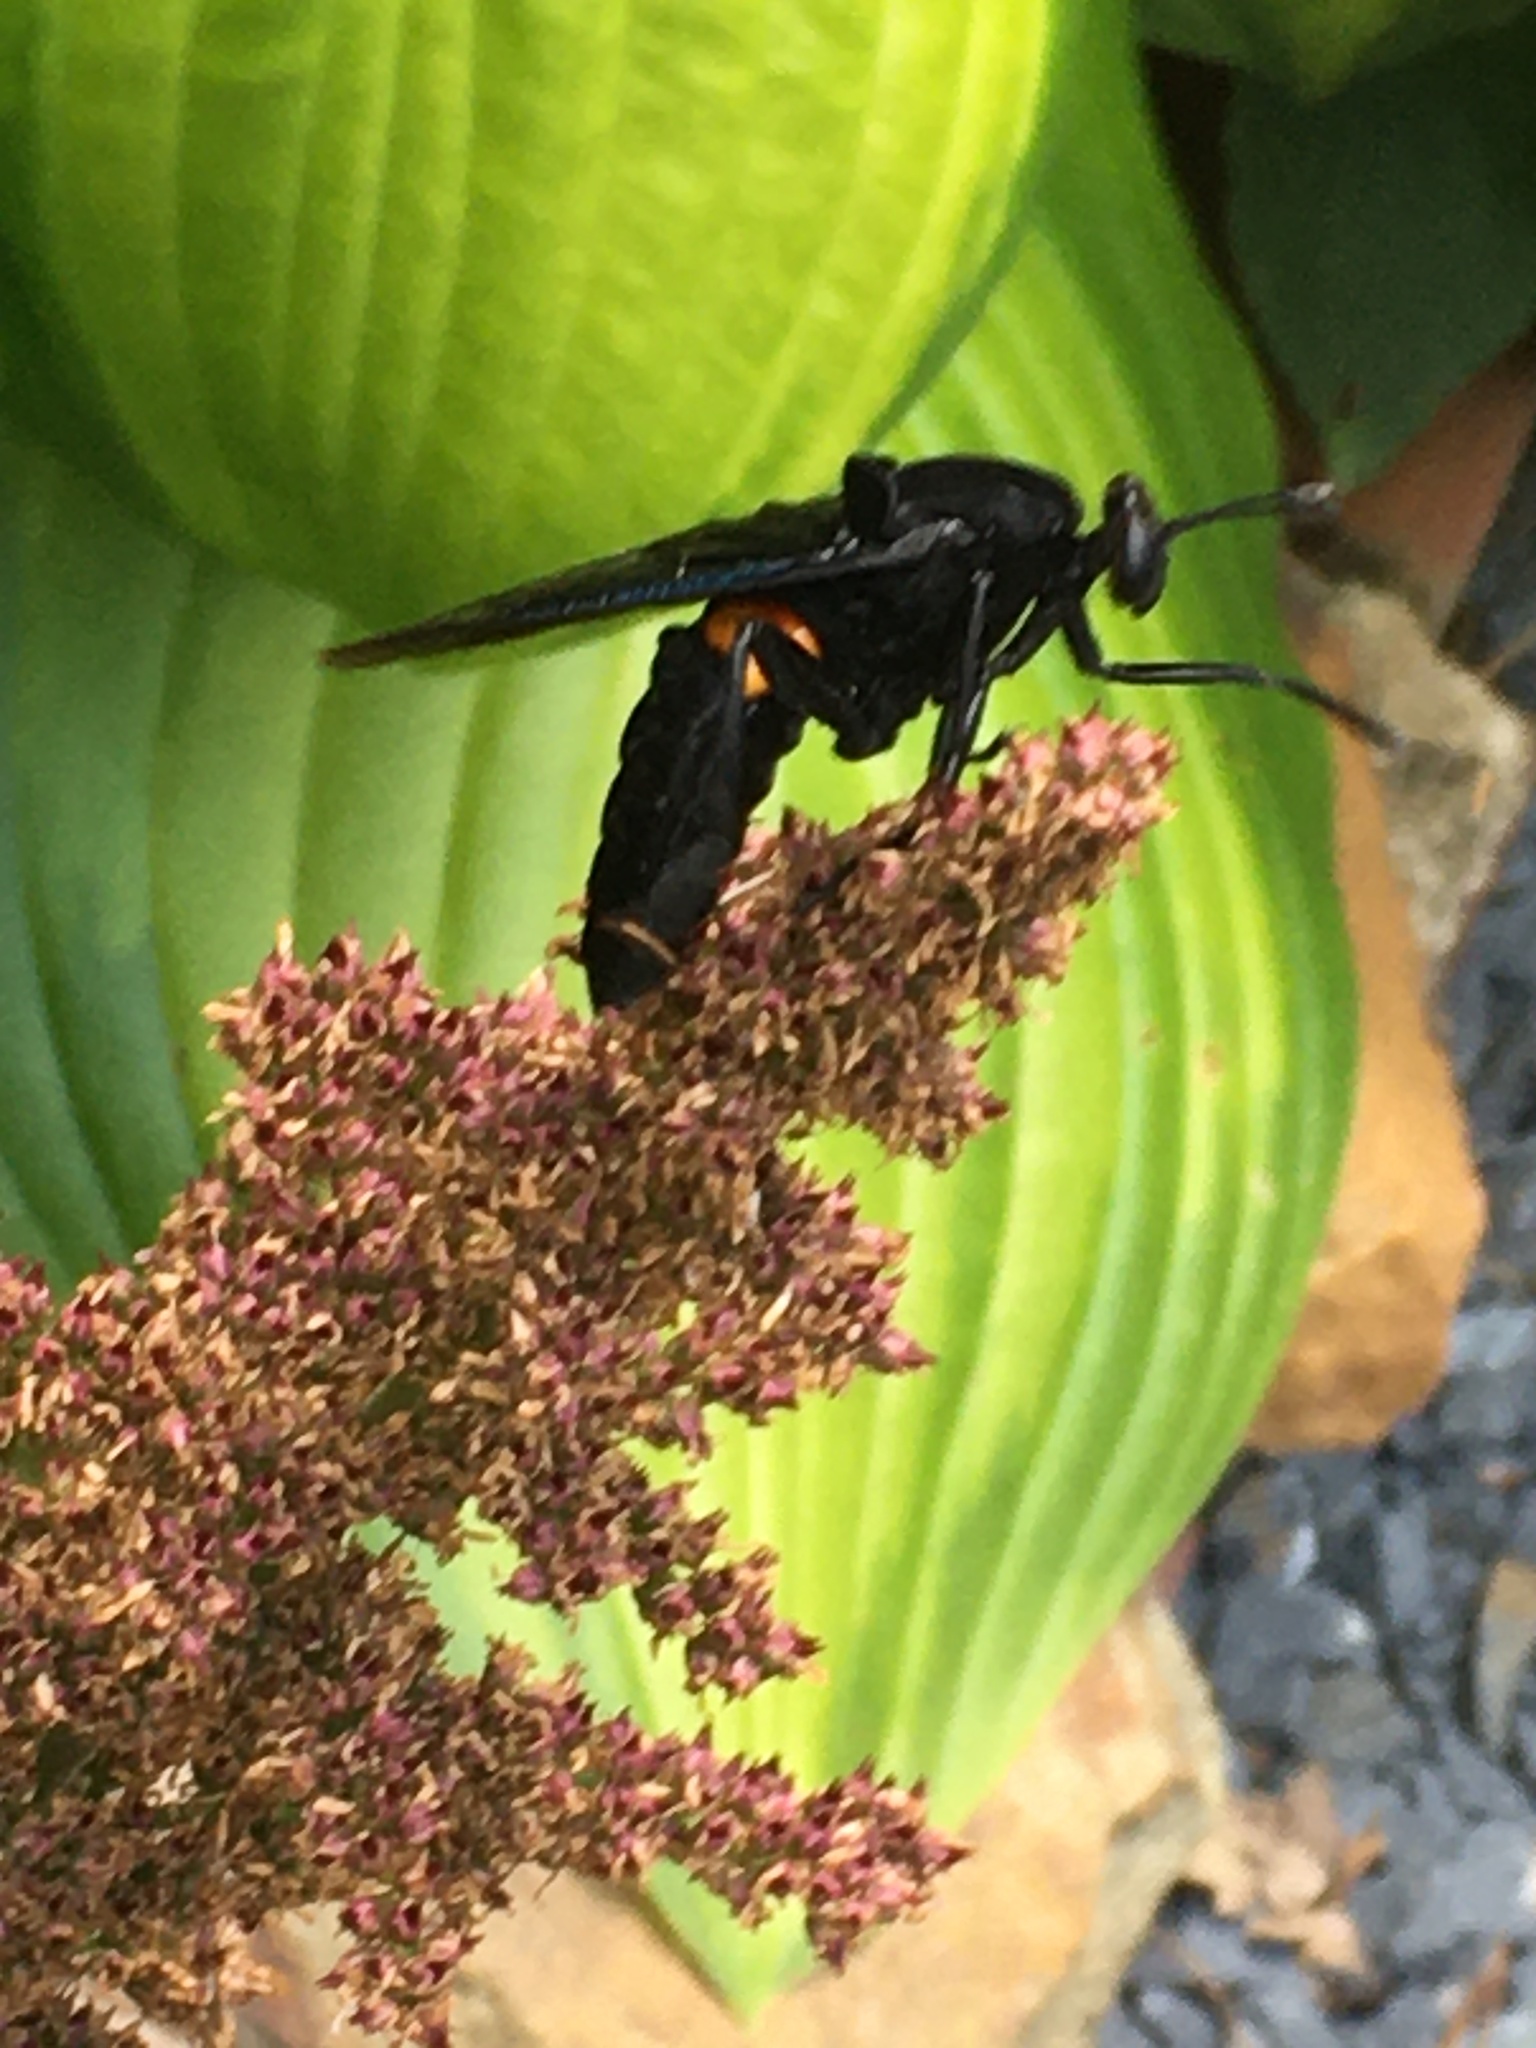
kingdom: Animalia
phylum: Arthropoda
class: Insecta
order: Diptera
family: Mydidae
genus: Mydas
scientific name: Mydas clavatus
